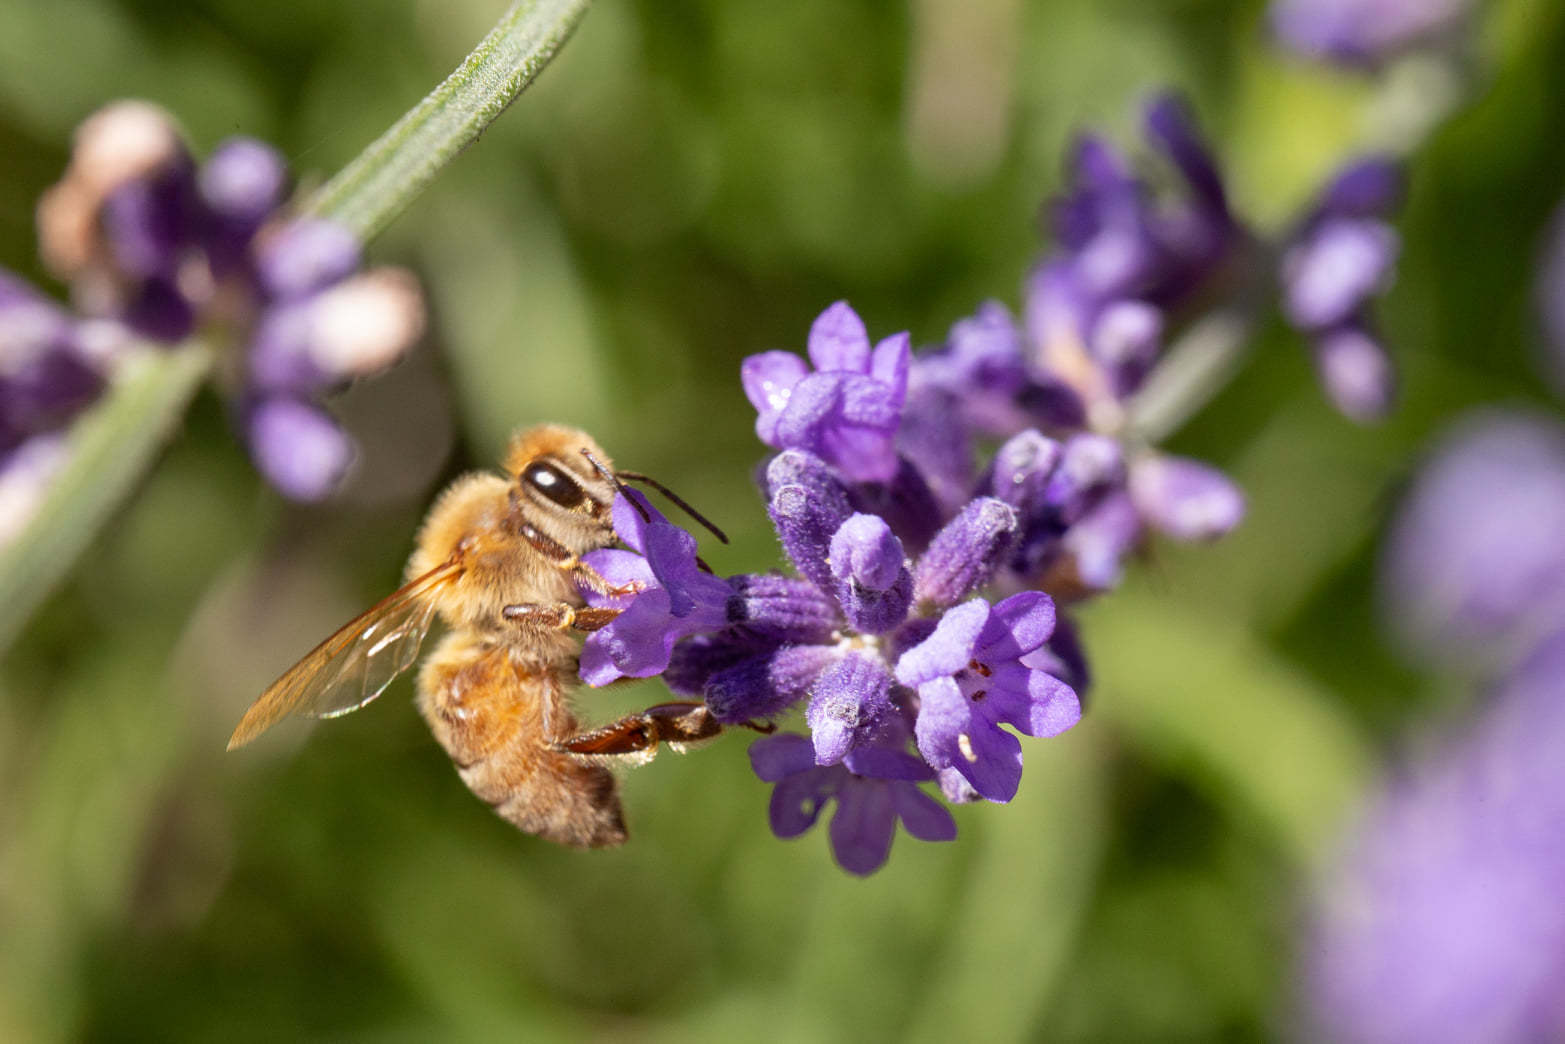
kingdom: Animalia
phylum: Arthropoda
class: Insecta
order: Hymenoptera
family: Apidae
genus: Apis
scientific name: Apis mellifera
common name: Honey bee
